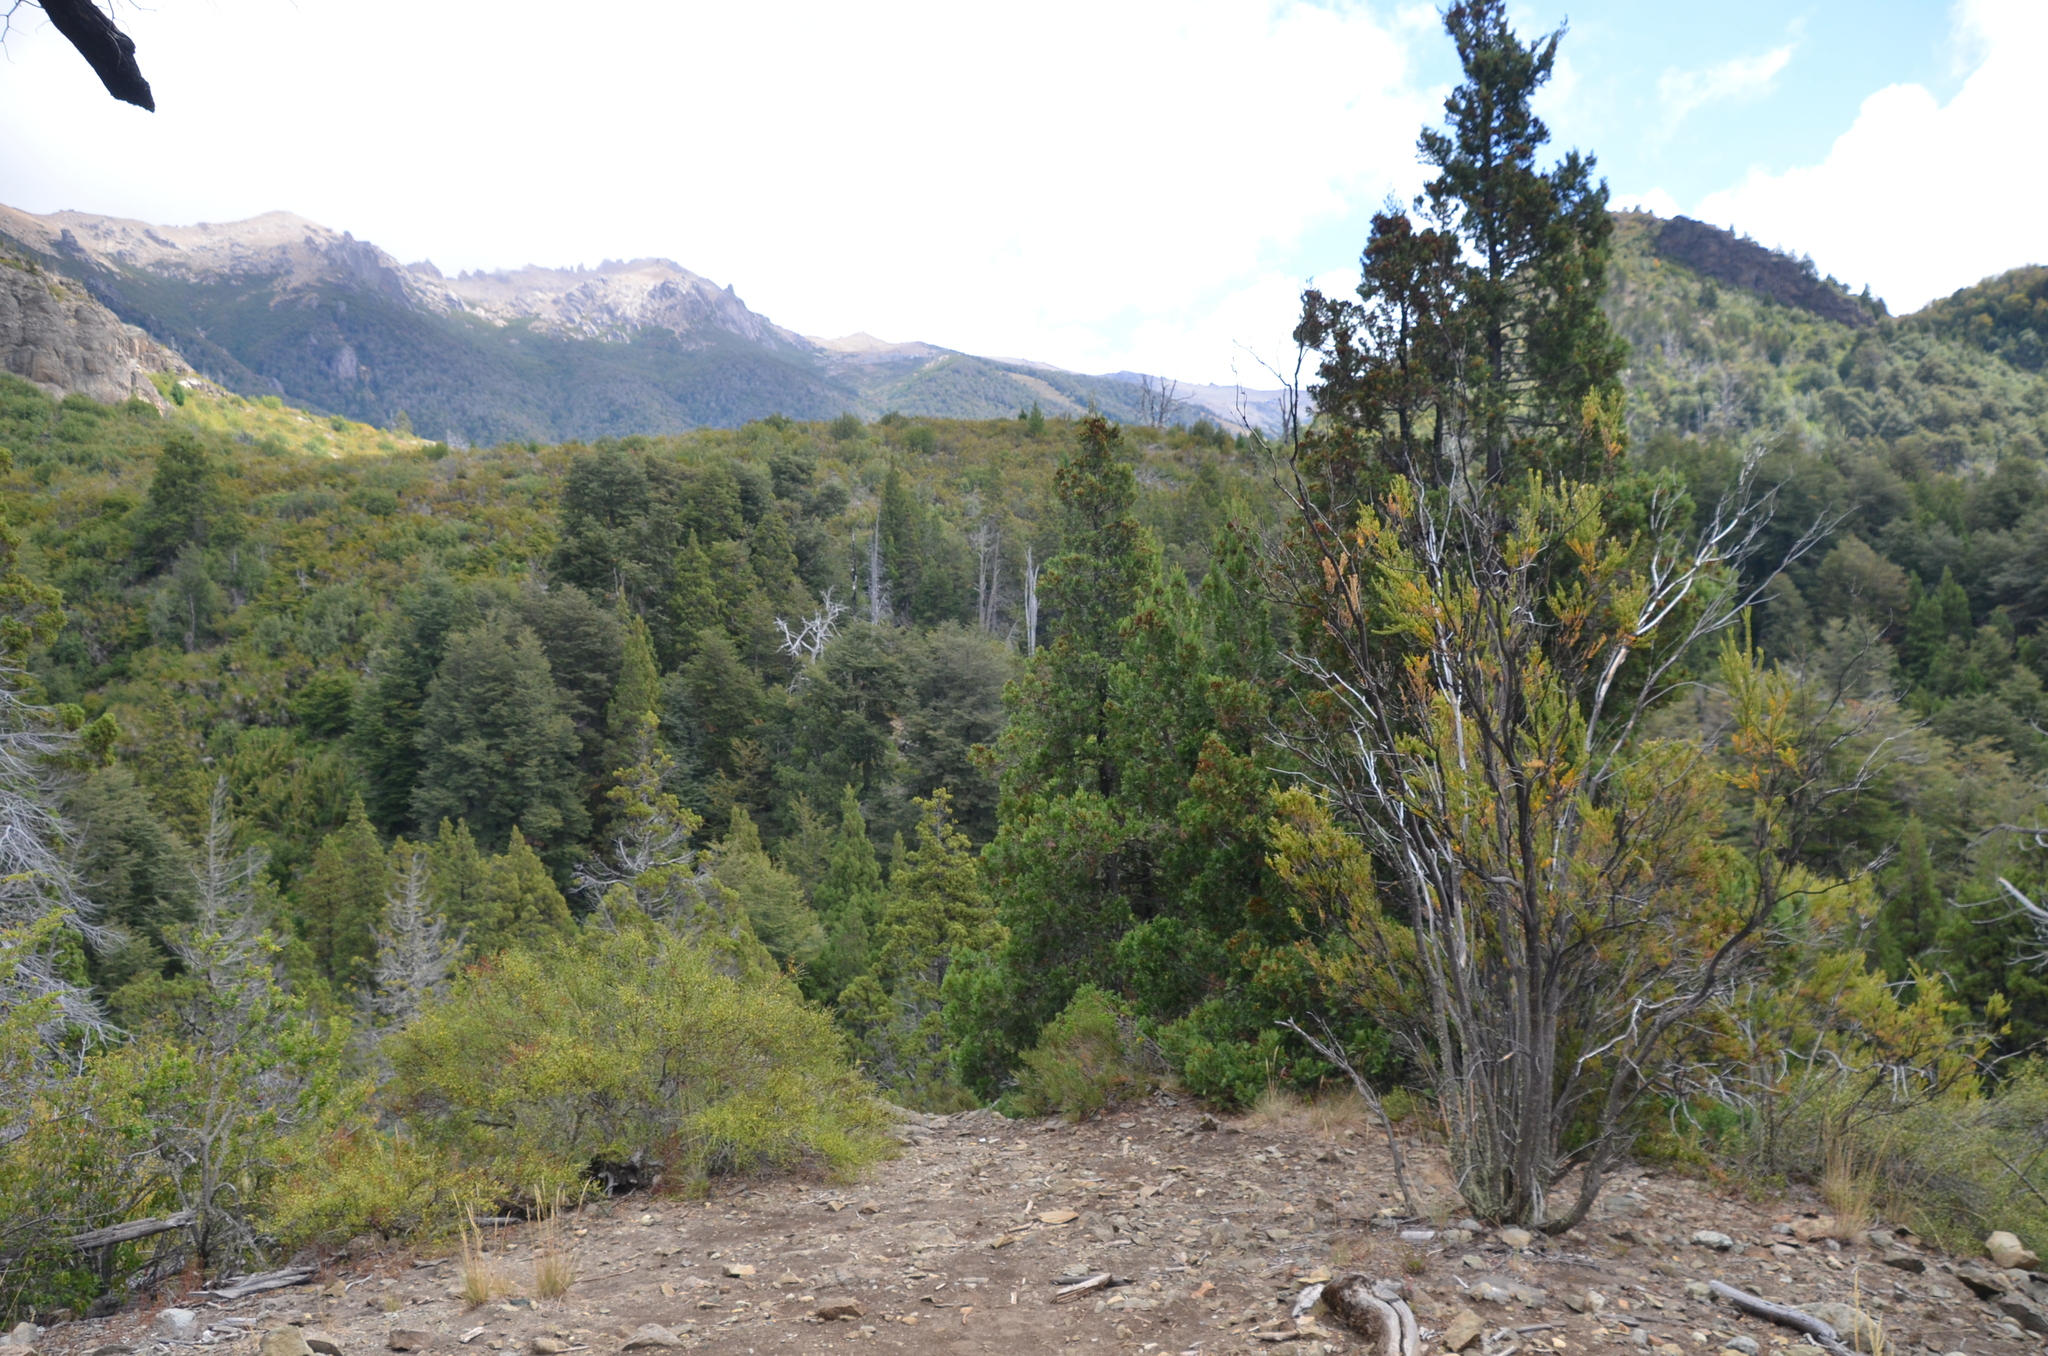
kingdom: Plantae
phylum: Tracheophyta
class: Pinopsida
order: Pinales
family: Cupressaceae
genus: Austrocedrus
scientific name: Austrocedrus chilensis
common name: Chilean incense-cedar
